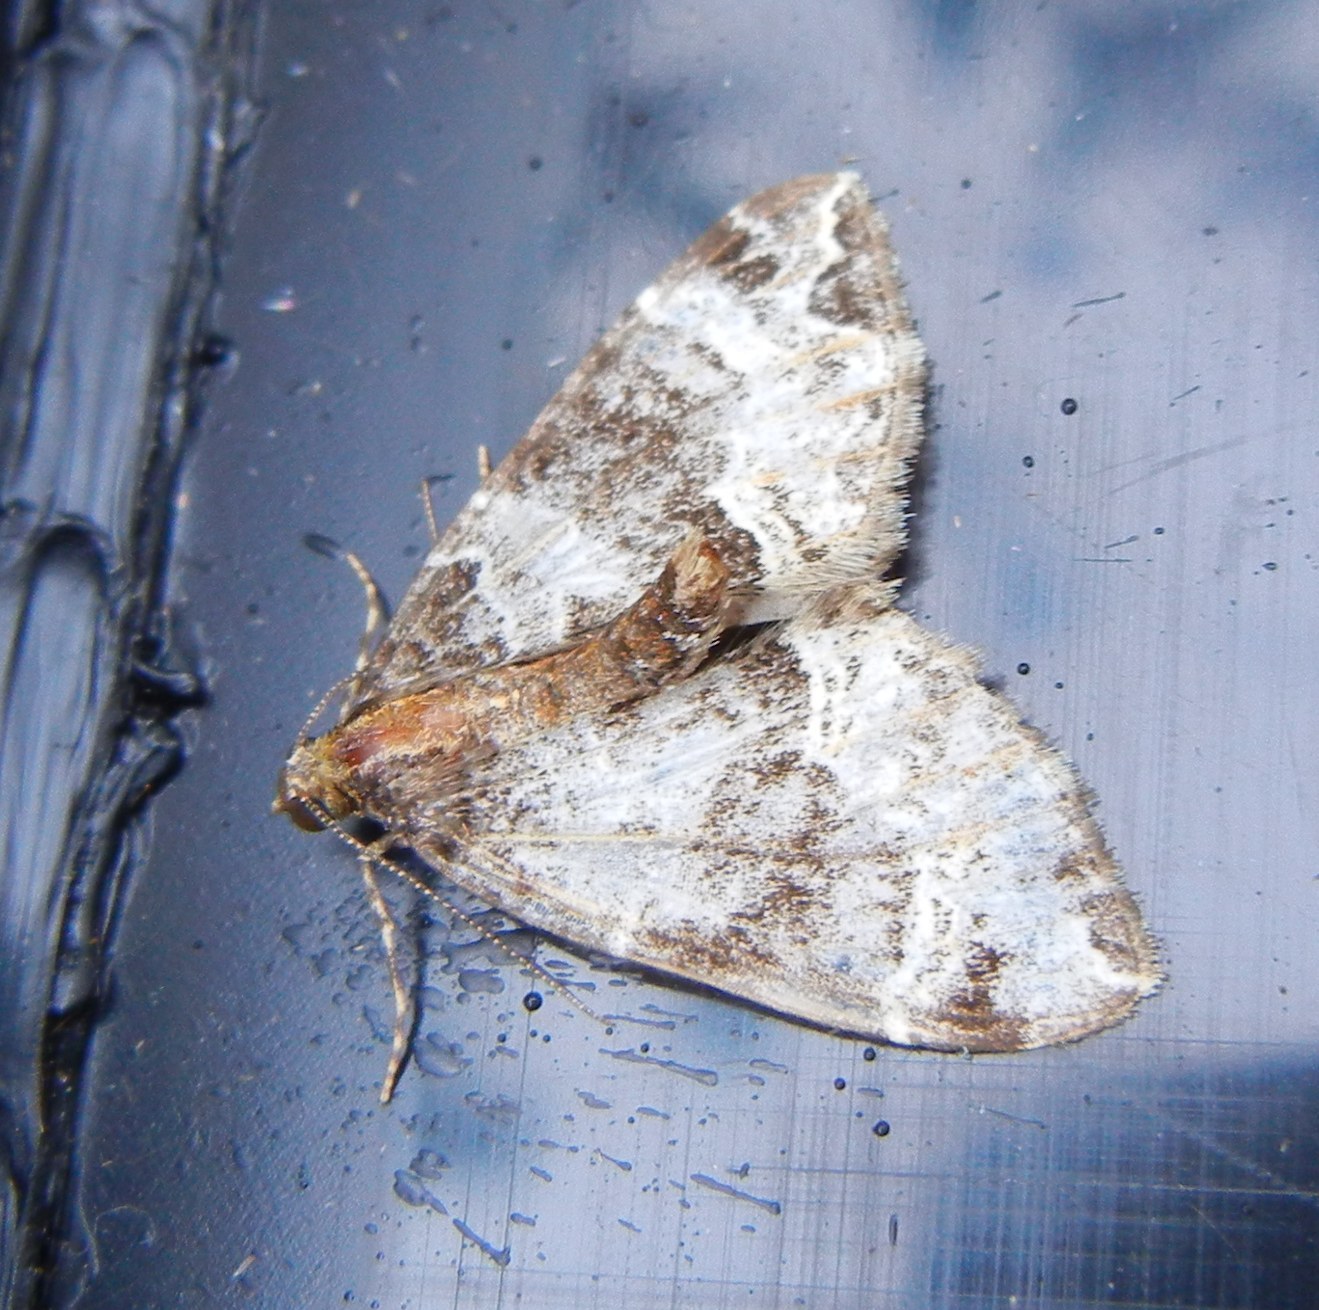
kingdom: Animalia
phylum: Arthropoda
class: Insecta
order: Lepidoptera
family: Geometridae
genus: Ecliptopera
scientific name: Ecliptopera silaceata
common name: Small phoenix
